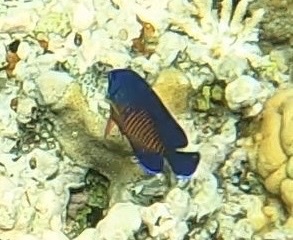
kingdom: Animalia
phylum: Chordata
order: Perciformes
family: Pomacanthidae
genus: Centropyge
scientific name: Centropyge bispinosa
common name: Coral beauty
